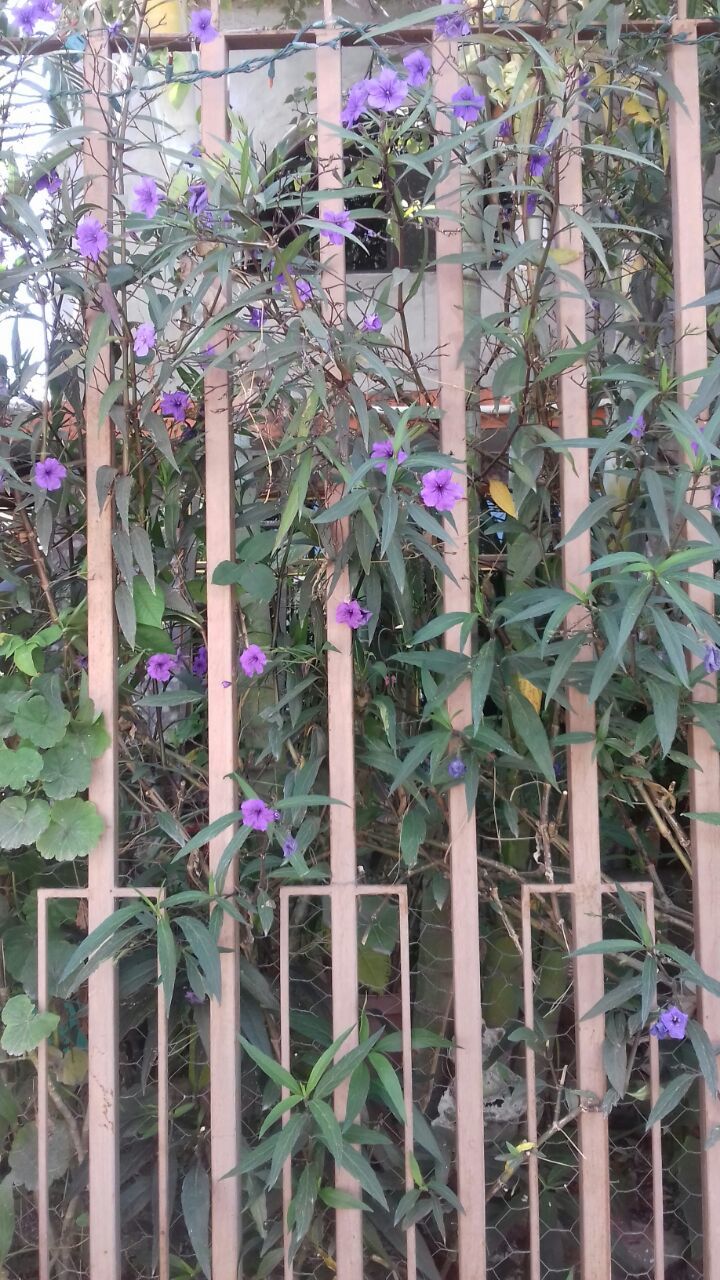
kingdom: Plantae
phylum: Tracheophyta
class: Magnoliopsida
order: Lamiales
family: Acanthaceae
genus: Ruellia
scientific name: Ruellia simplex
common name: Softseed wild petunia
